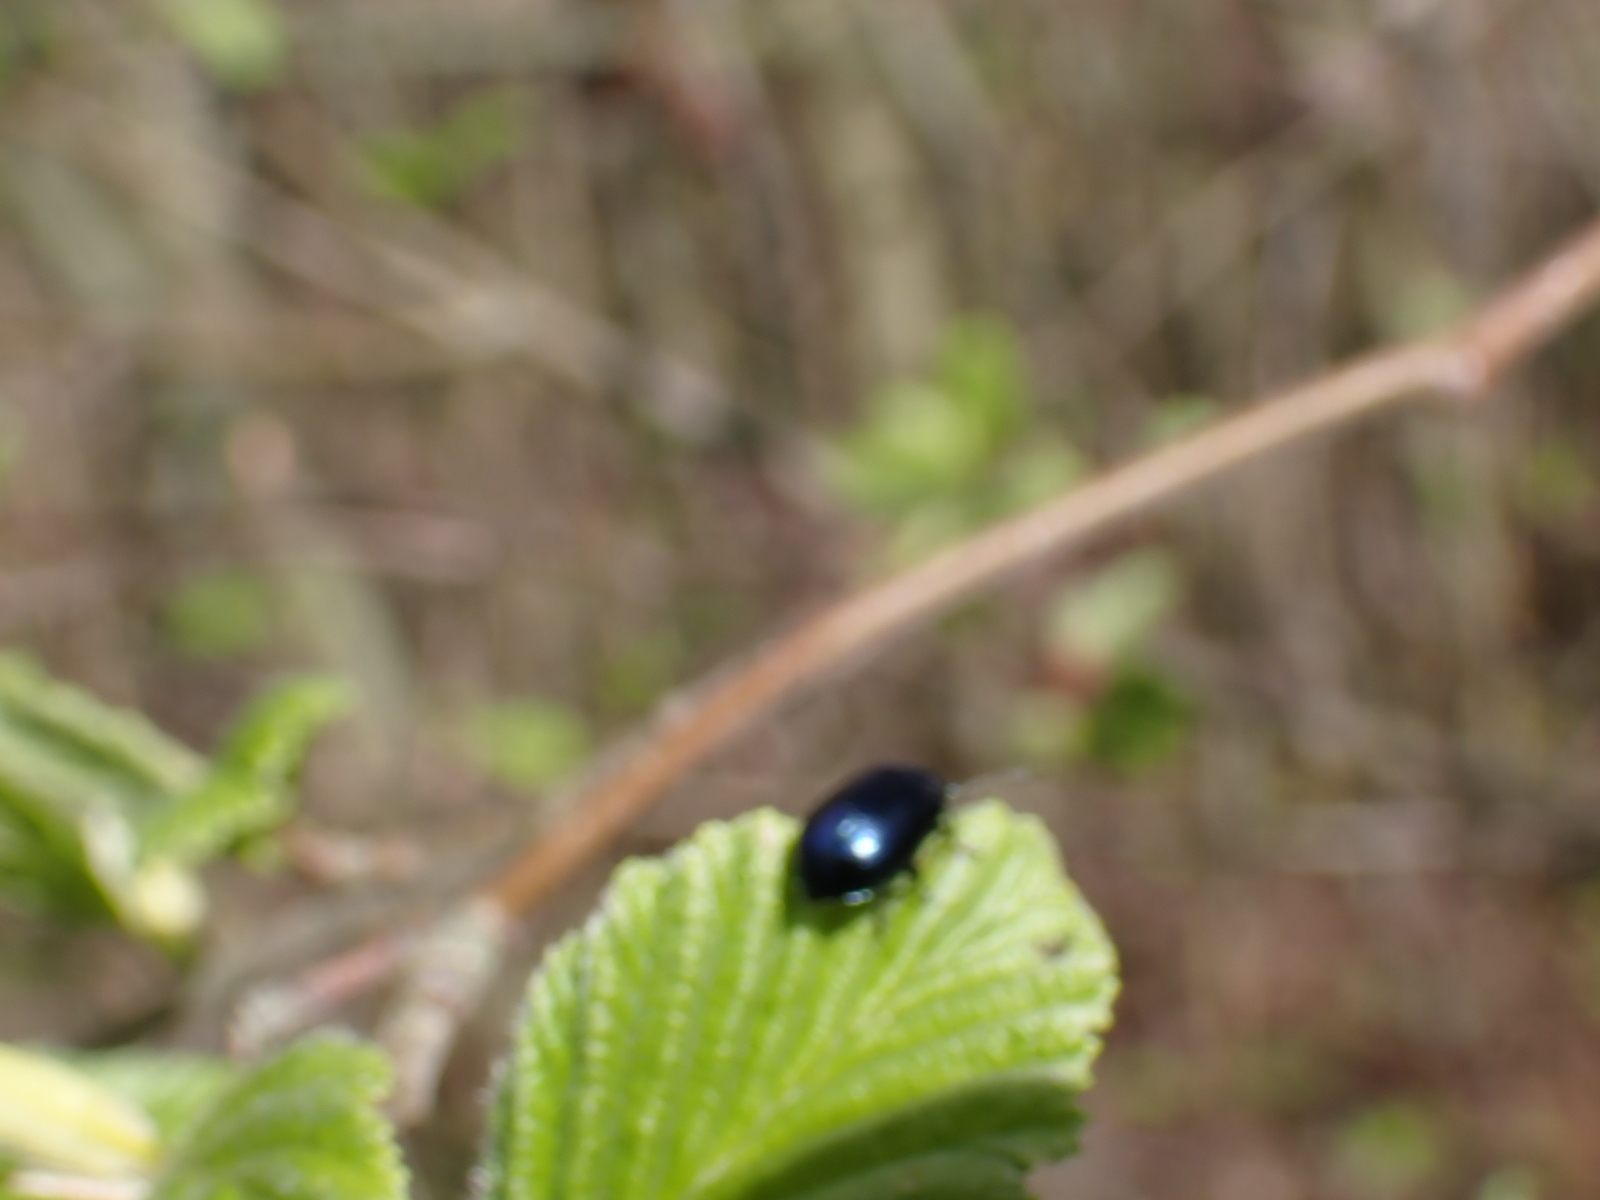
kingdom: Animalia
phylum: Arthropoda
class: Insecta
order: Coleoptera
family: Chrysomelidae
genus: Agelastica
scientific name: Agelastica alni
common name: Alder leaf beetle
